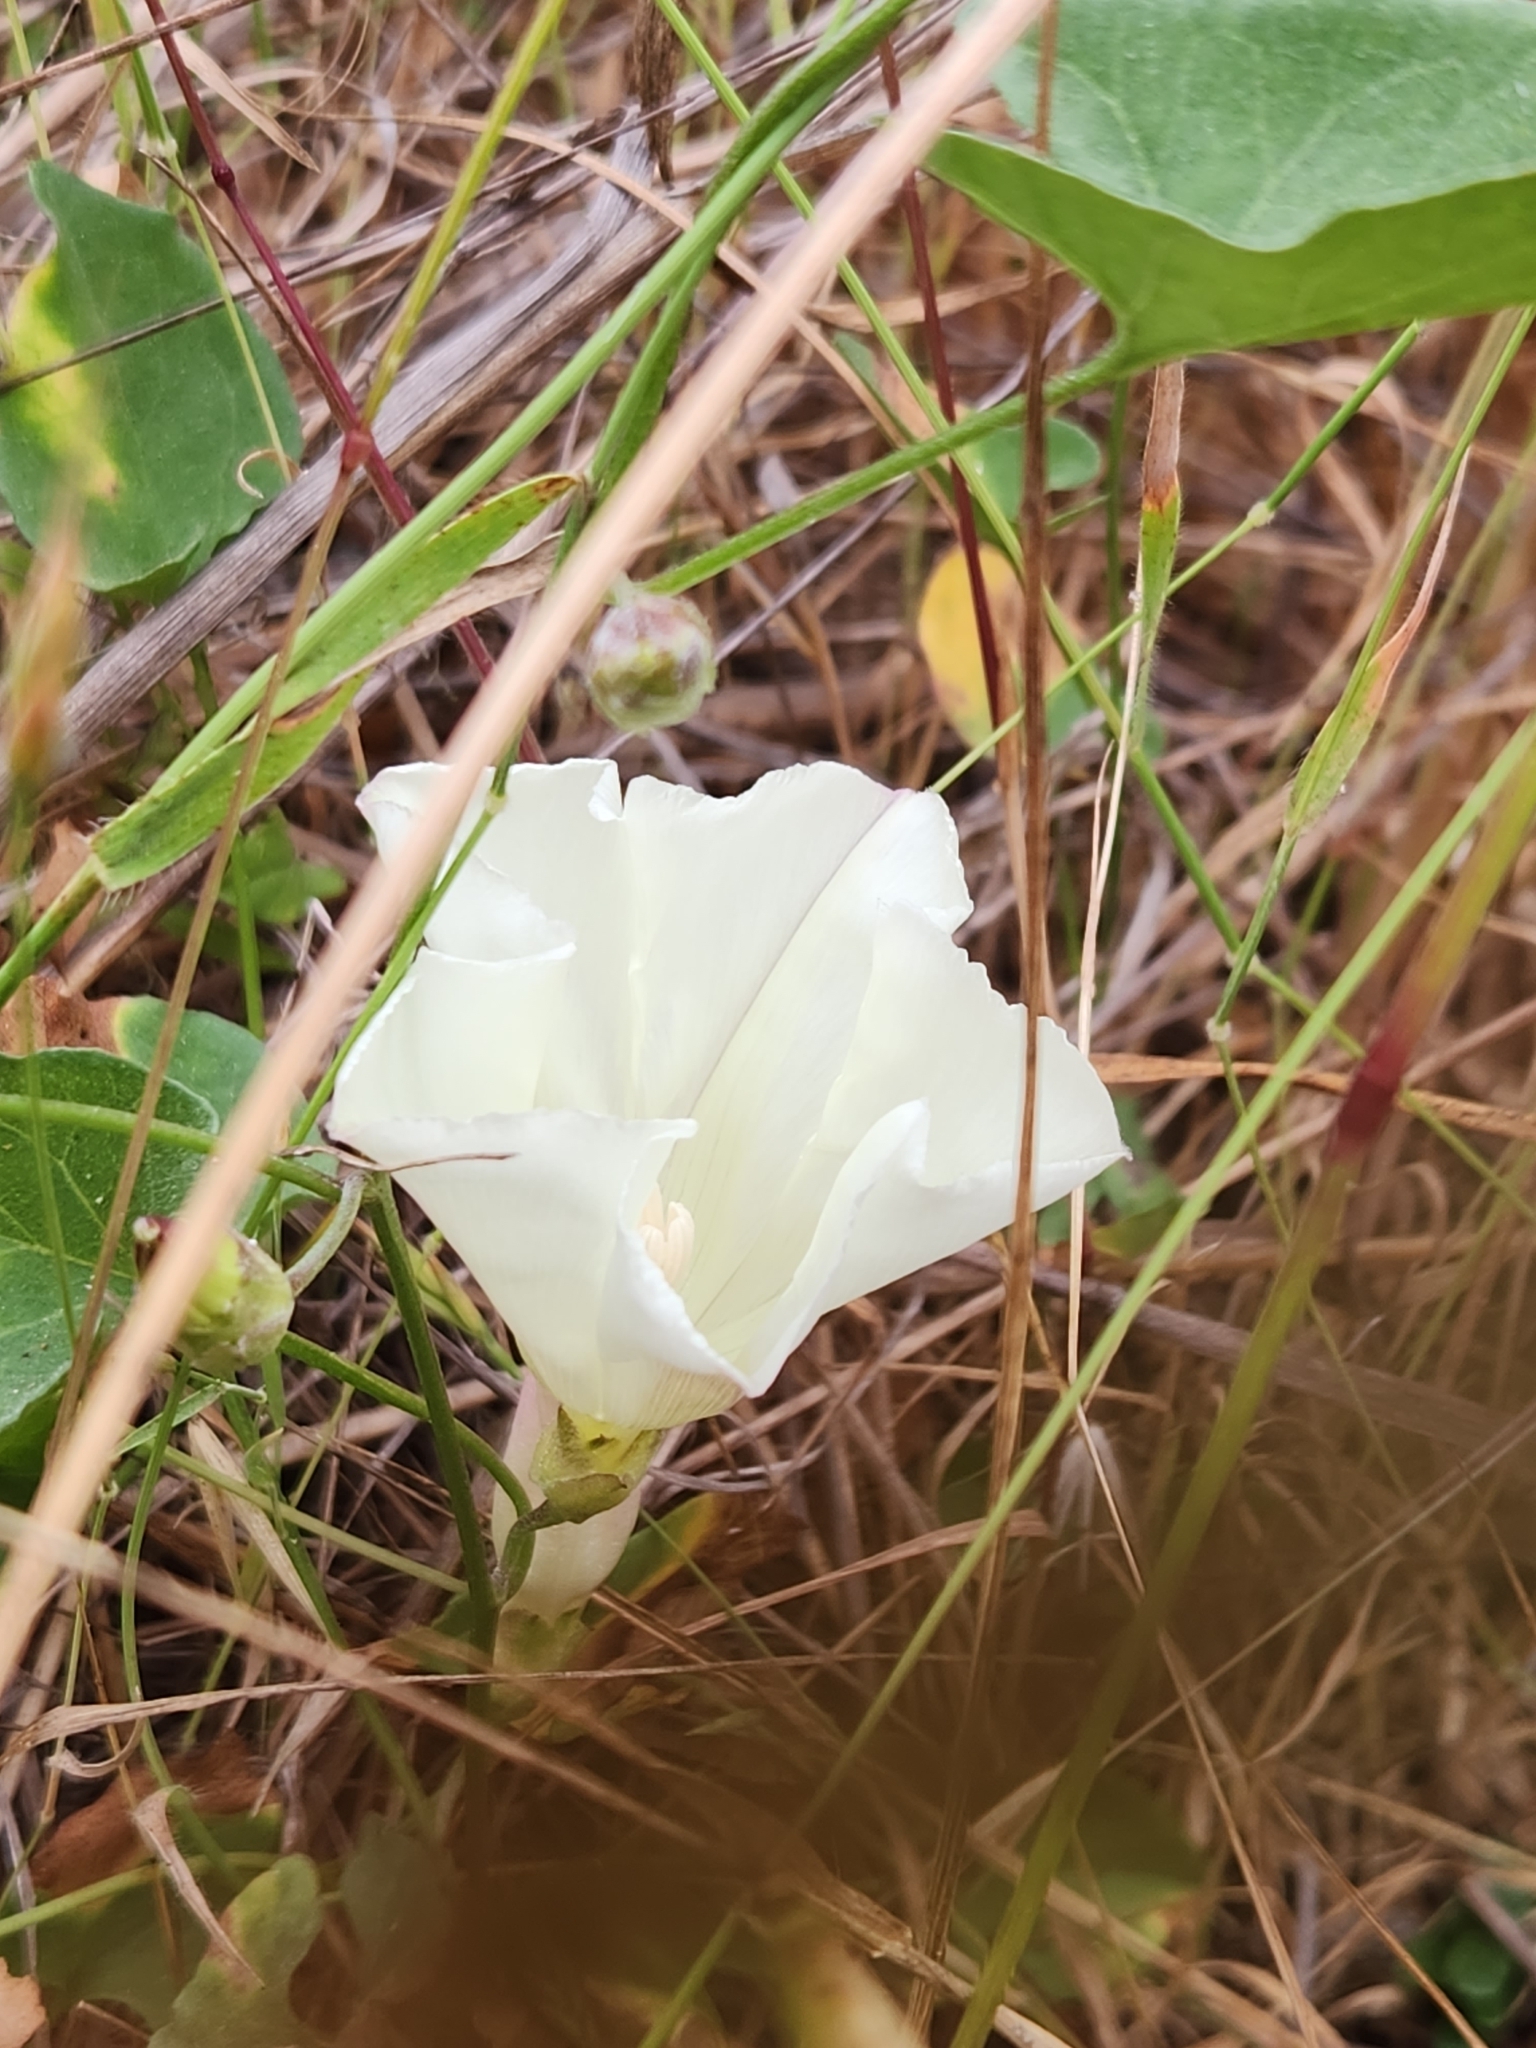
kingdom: Plantae
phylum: Tracheophyta
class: Magnoliopsida
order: Solanales
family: Convolvulaceae
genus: Calystegia
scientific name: Calystegia subacaulis
